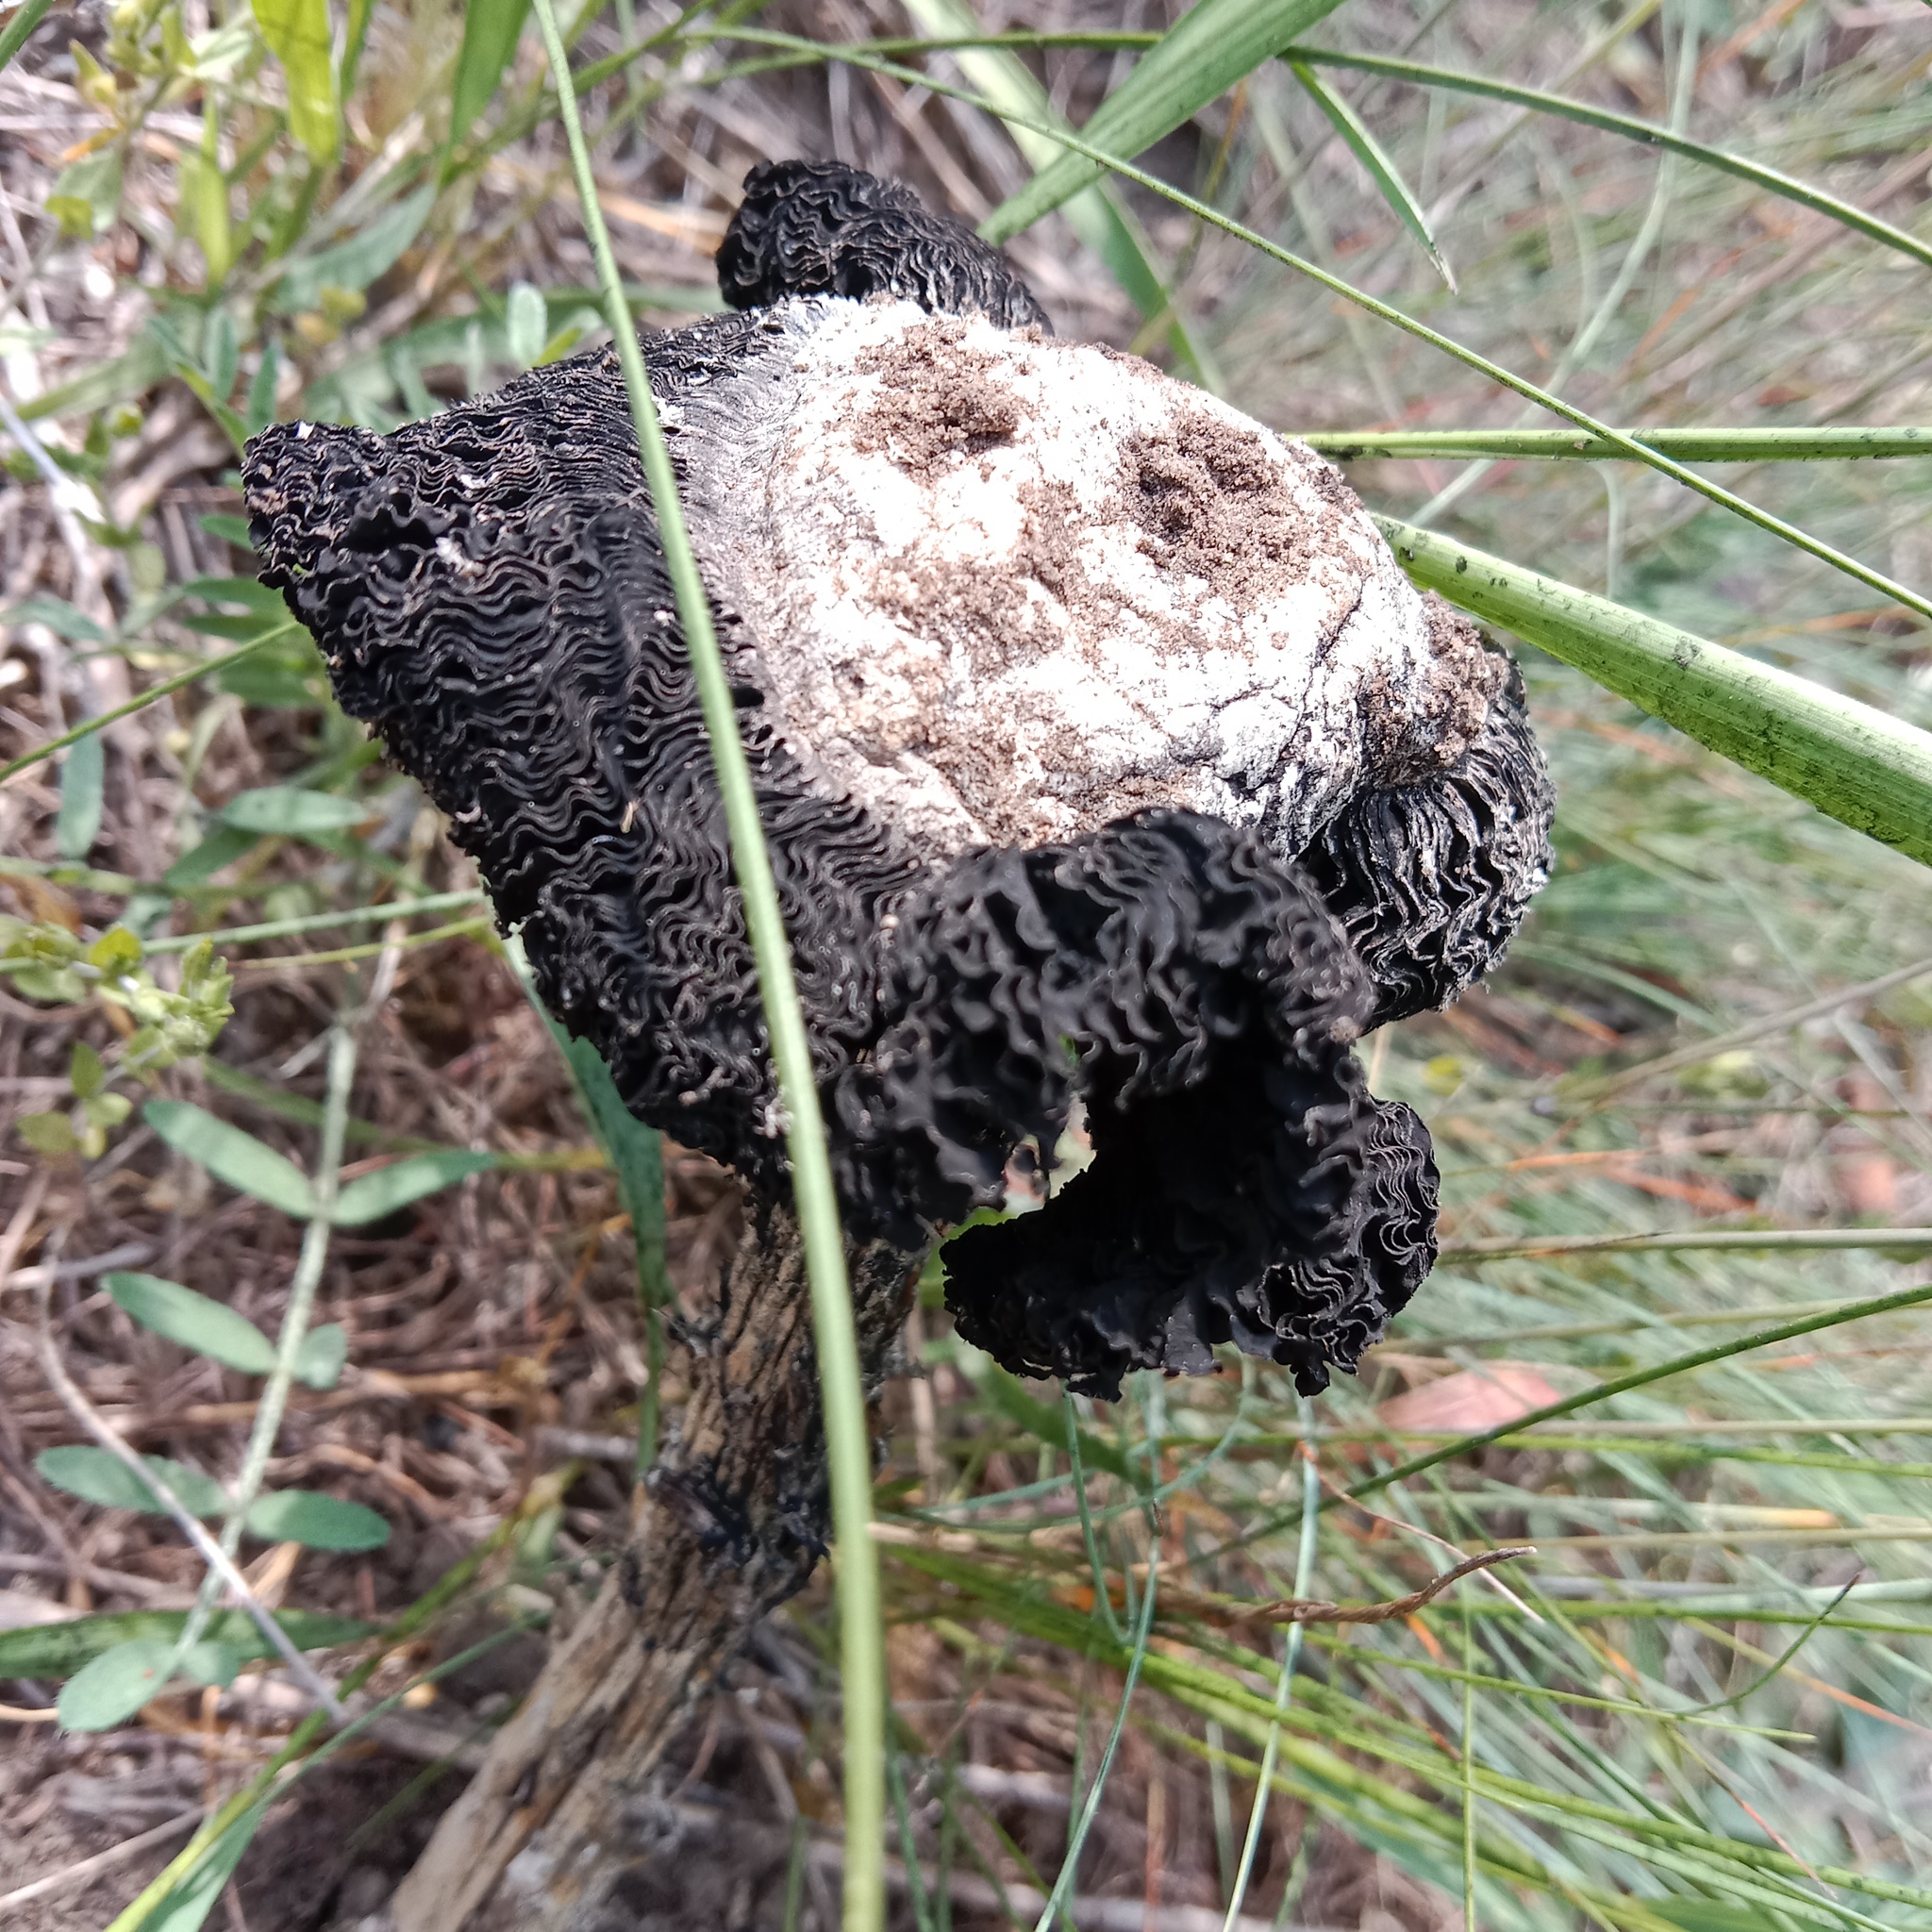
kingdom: Fungi
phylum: Basidiomycota
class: Agaricomycetes
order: Agaricales
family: Agaricaceae
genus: Montagnea
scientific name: Montagnea arenaria
